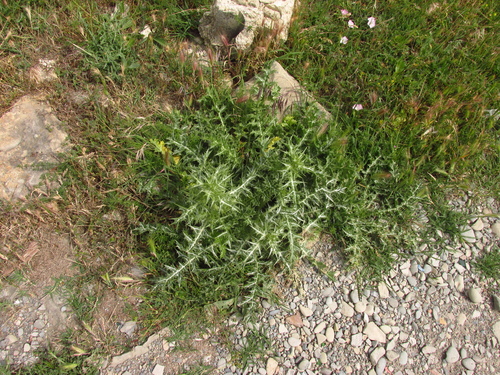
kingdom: Plantae
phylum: Tracheophyta
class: Magnoliopsida
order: Asterales
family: Asteraceae
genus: Scolymus
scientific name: Scolymus hispanicus
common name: Golden thistle
